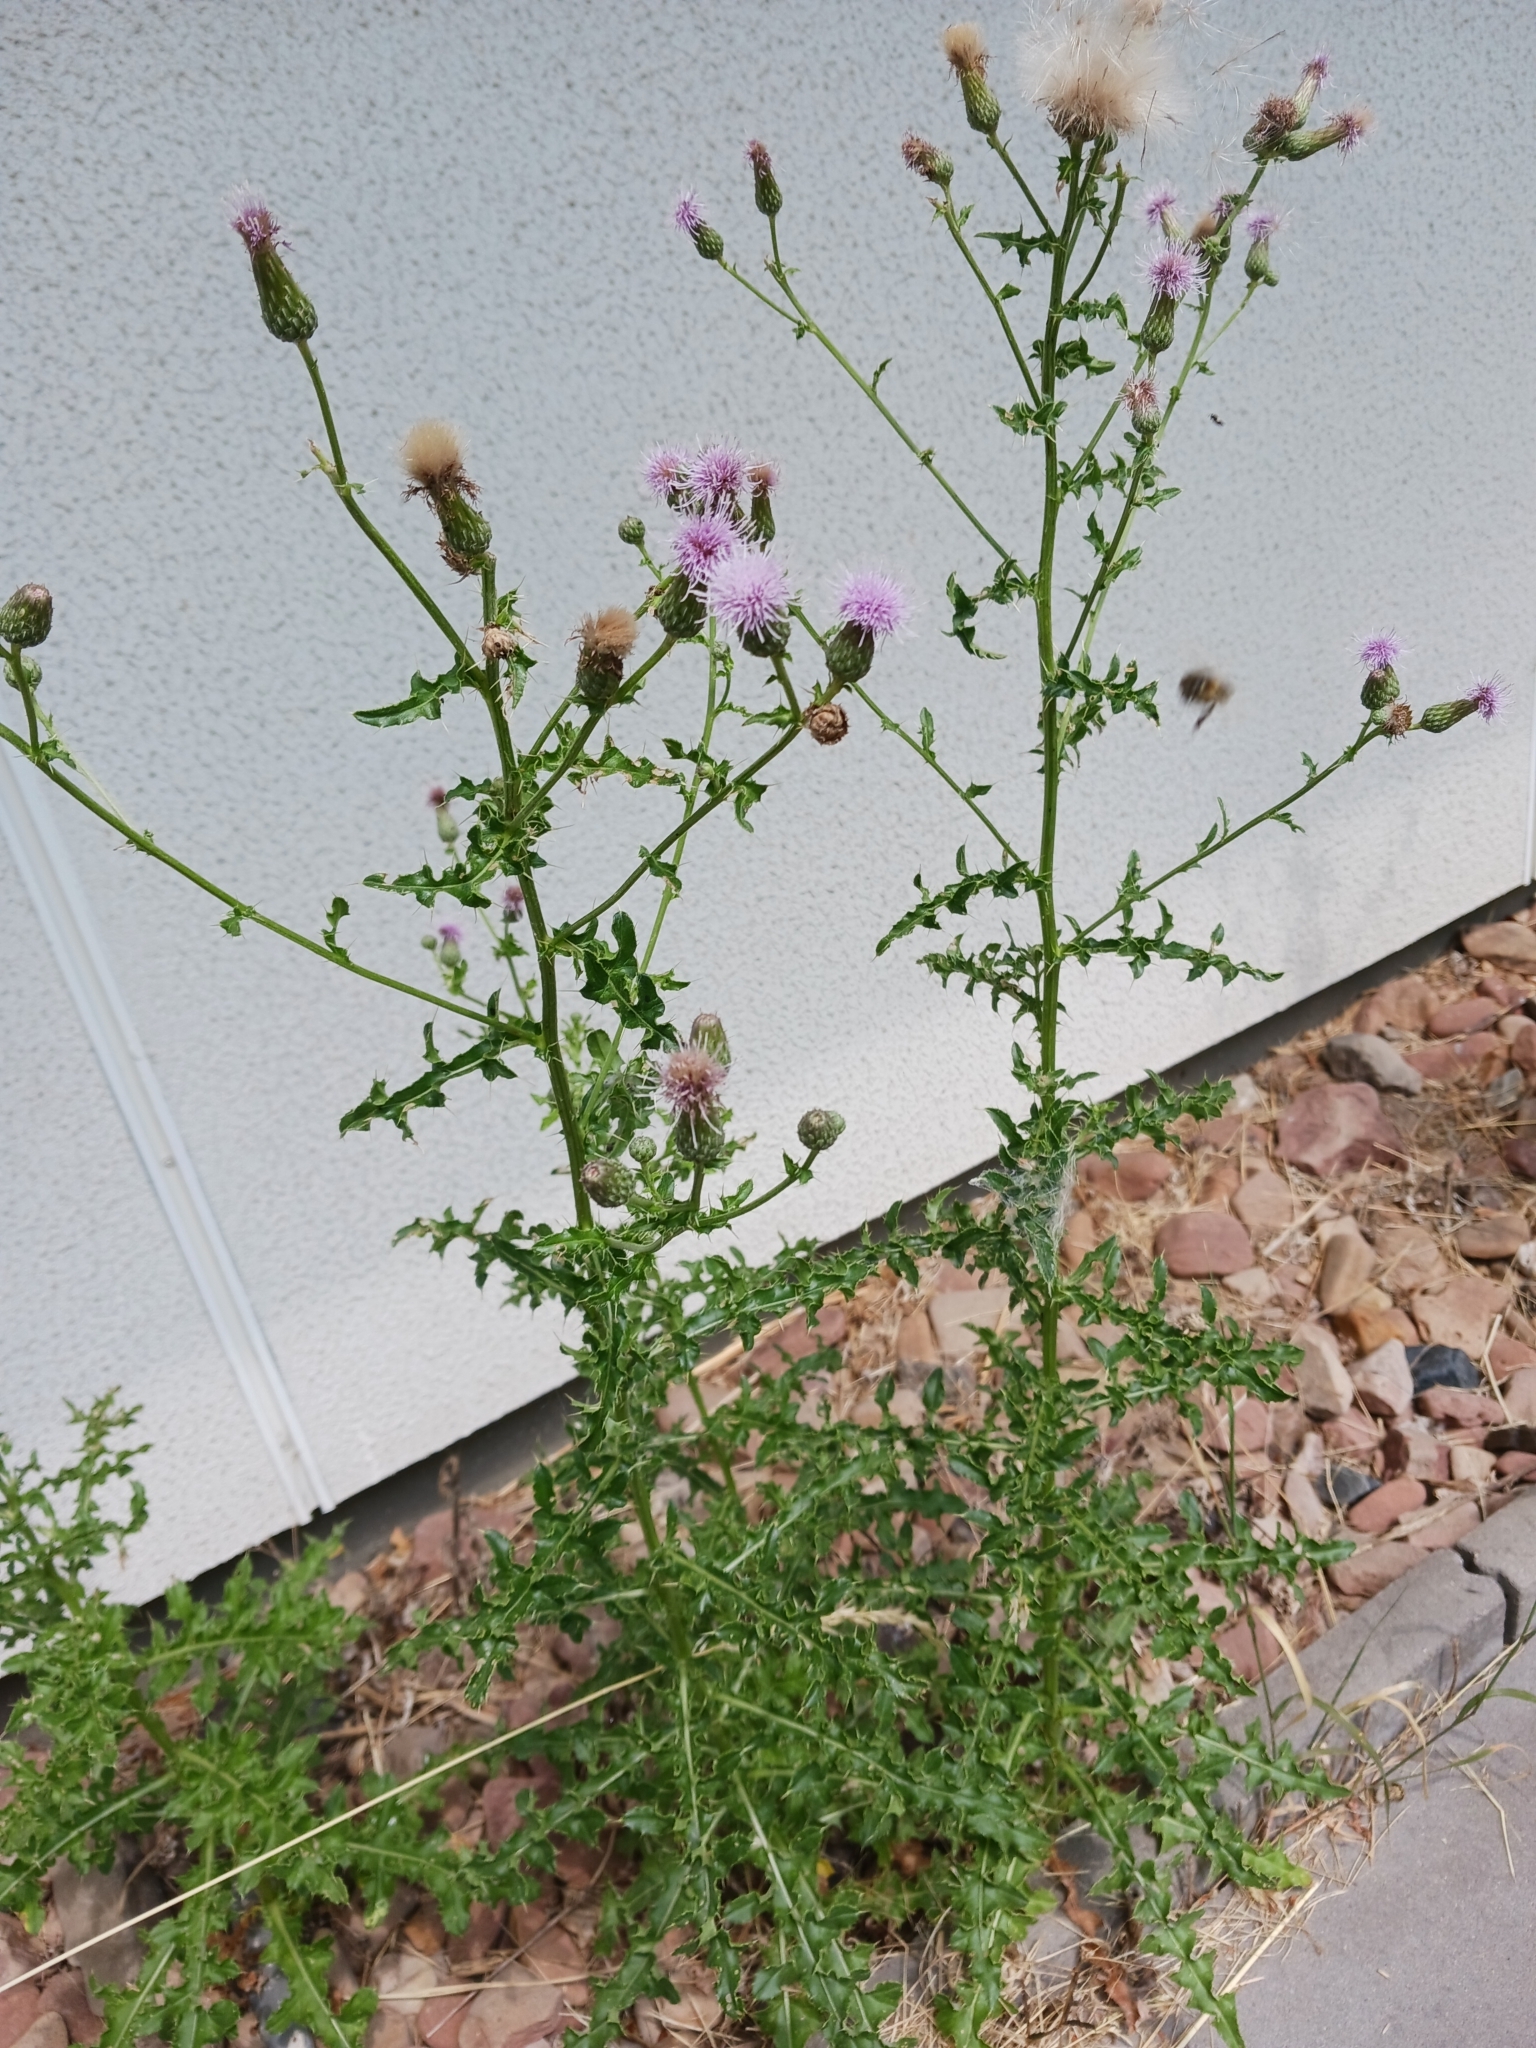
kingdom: Plantae
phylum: Tracheophyta
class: Magnoliopsida
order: Asterales
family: Asteraceae
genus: Cirsium
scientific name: Cirsium arvense
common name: Creeping thistle
